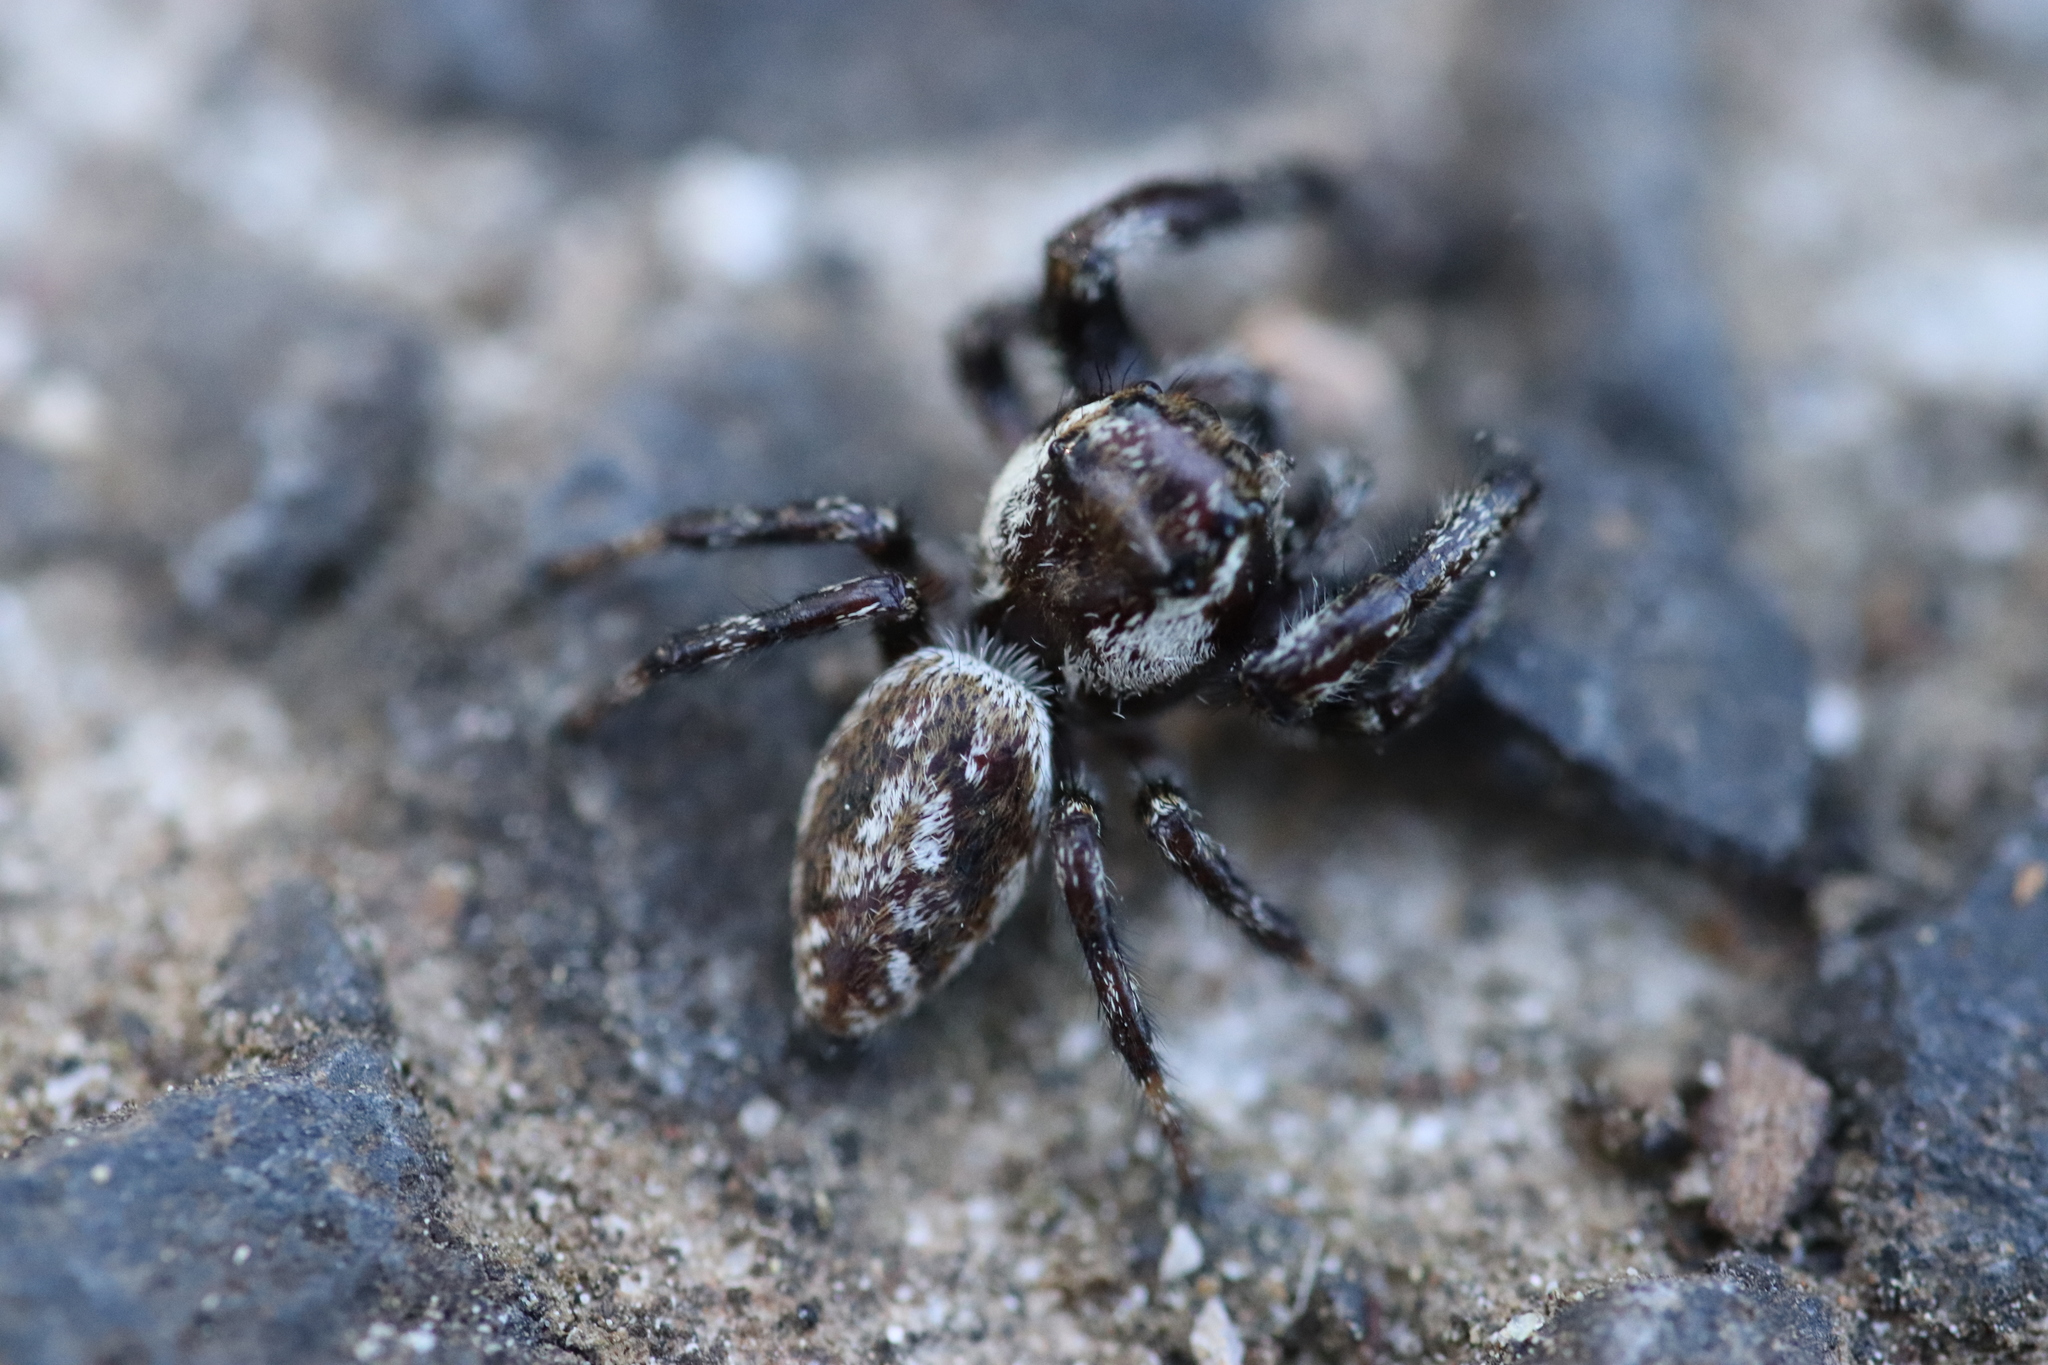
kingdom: Animalia
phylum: Arthropoda
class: Arachnida
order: Araneae
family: Salticidae
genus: Macaroeris
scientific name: Macaroeris nidicolens
